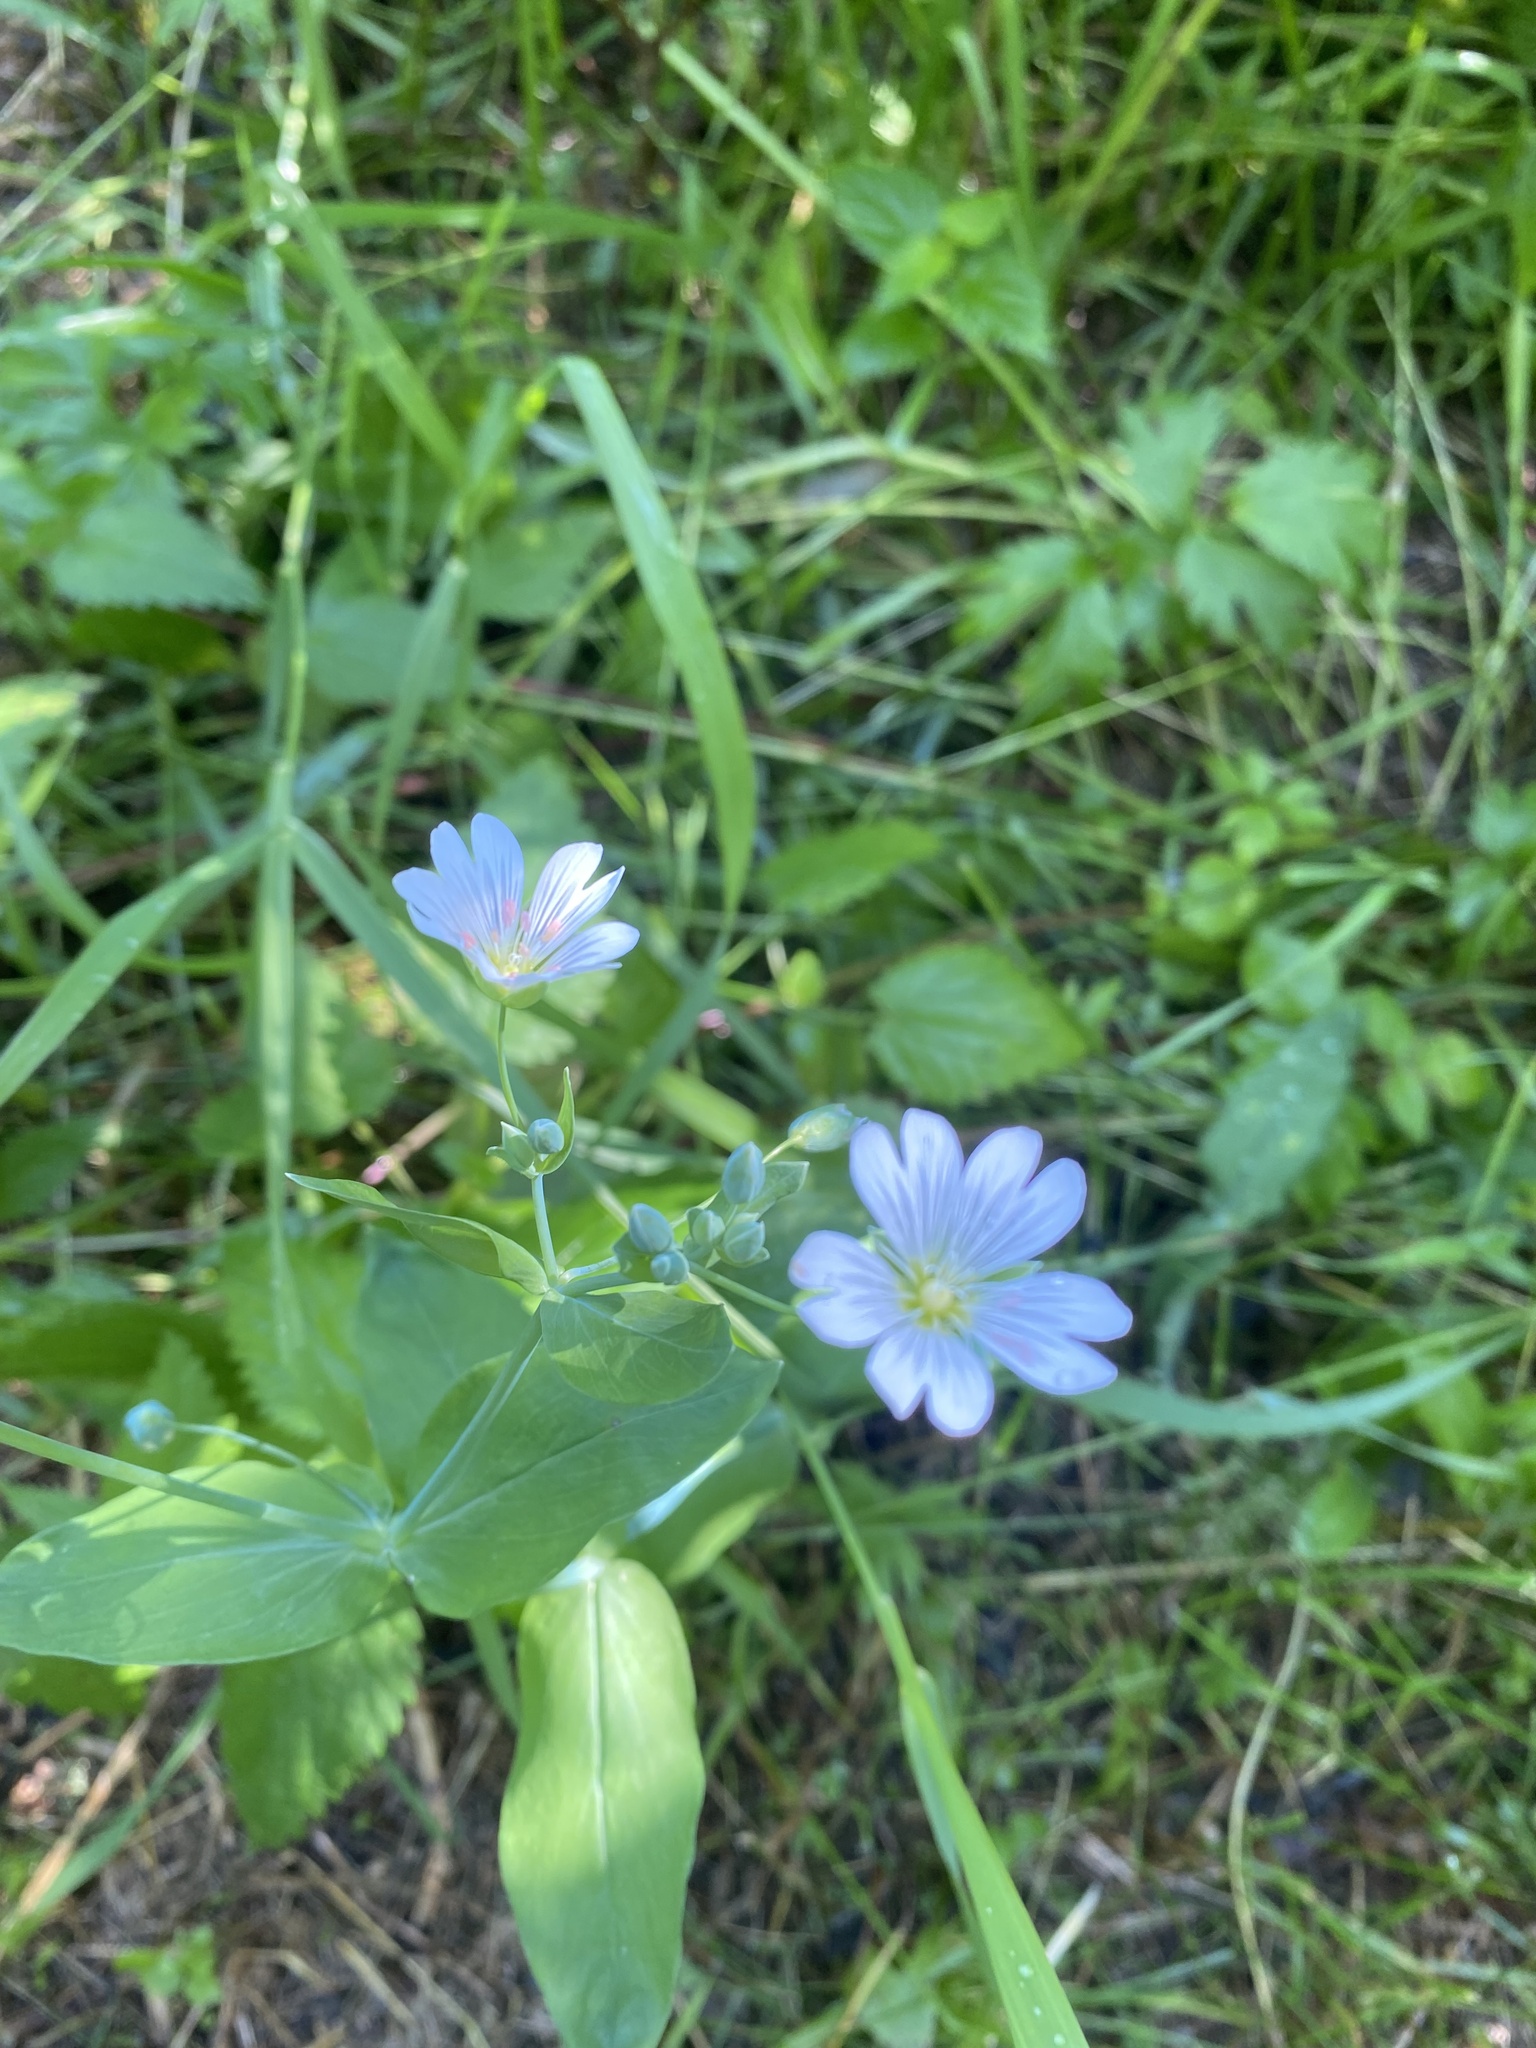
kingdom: Plantae
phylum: Tracheophyta
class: Magnoliopsida
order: Caryophyllales
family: Caryophyllaceae
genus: Cerastium
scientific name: Cerastium davuricum
